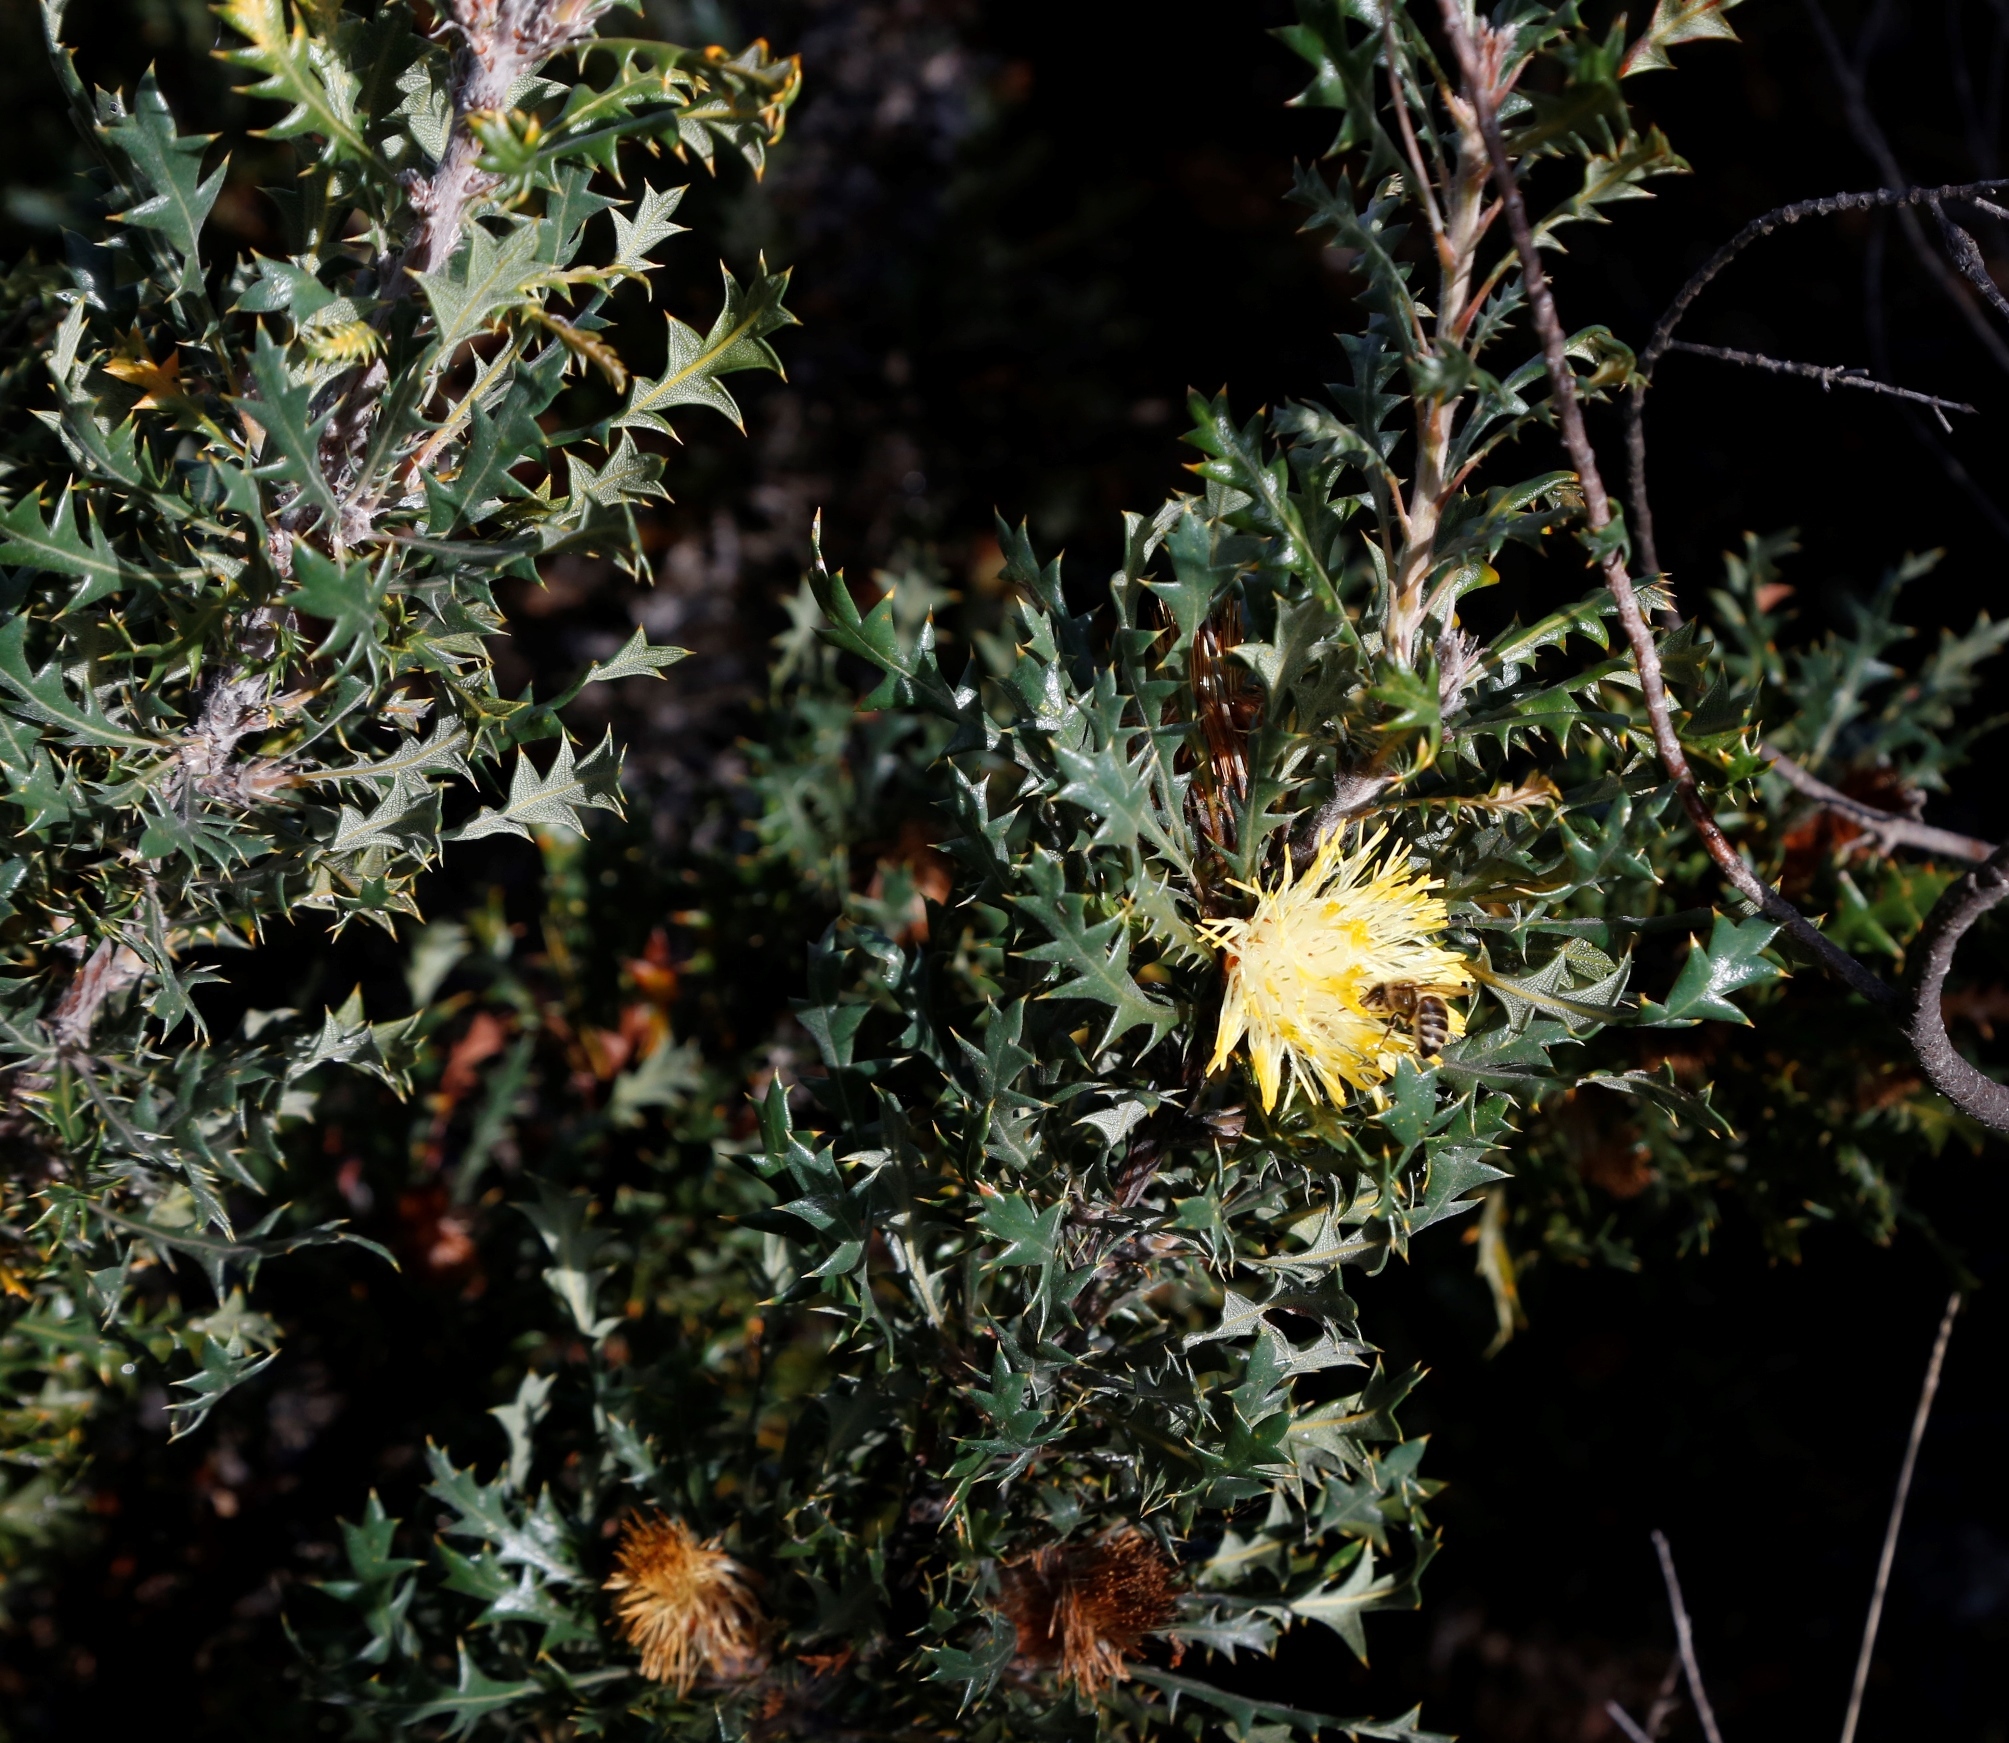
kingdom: Plantae
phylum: Tracheophyta
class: Magnoliopsida
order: Proteales
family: Proteaceae
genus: Banksia
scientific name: Banksia armata
